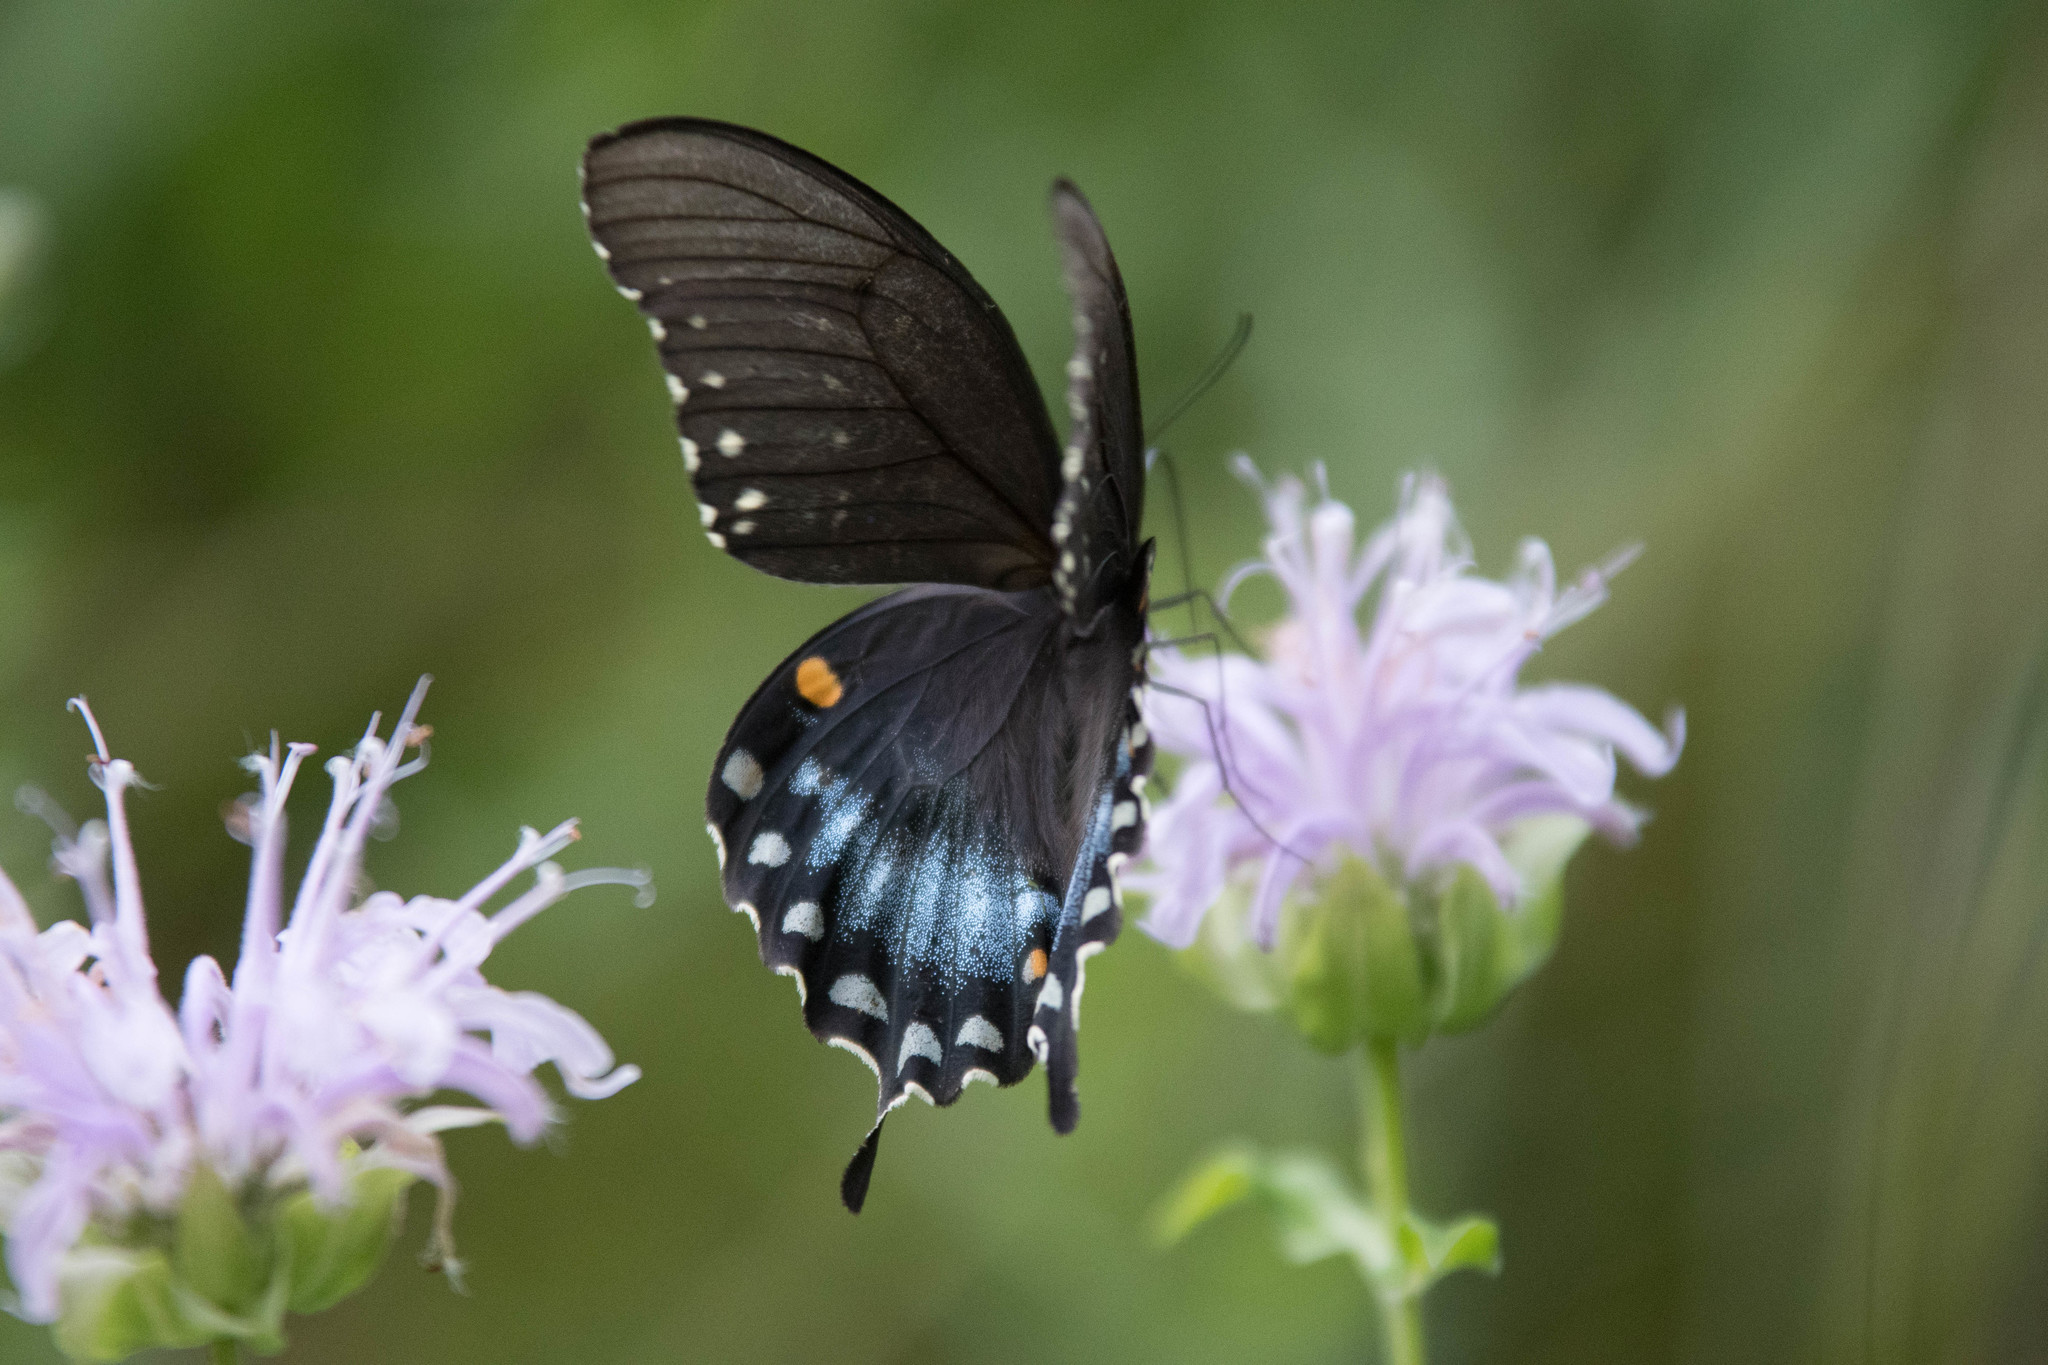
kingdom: Animalia
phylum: Arthropoda
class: Insecta
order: Lepidoptera
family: Papilionidae
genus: Papilio
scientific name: Papilio troilus
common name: Spicebush swallowtail
